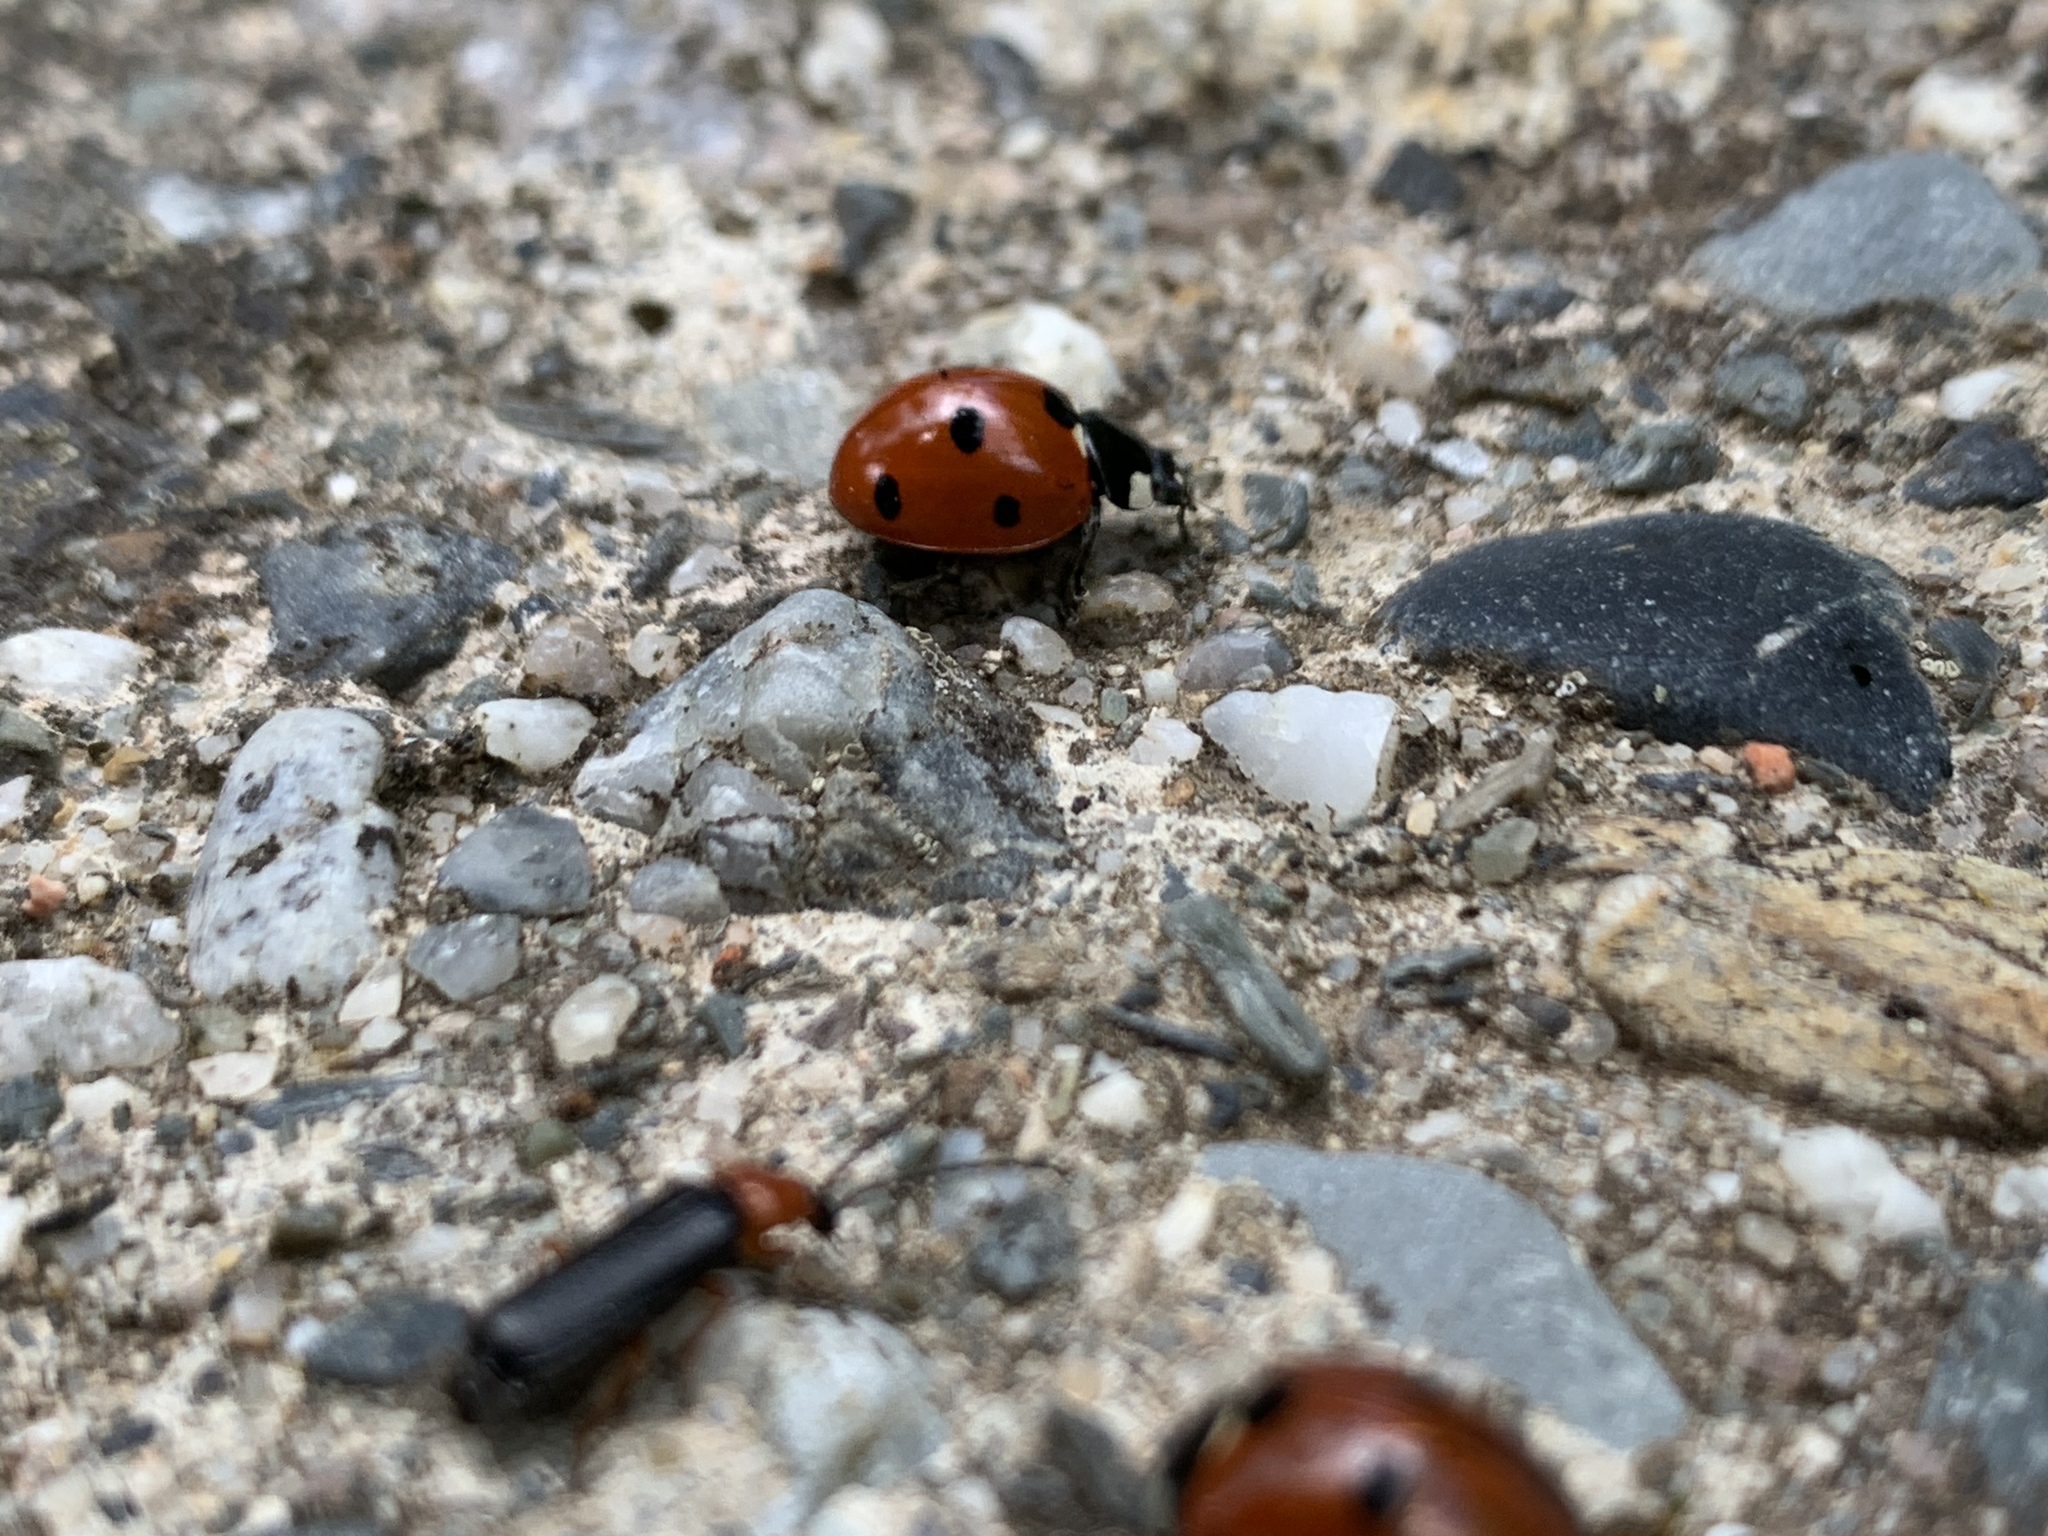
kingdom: Animalia
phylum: Arthropoda
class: Insecta
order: Coleoptera
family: Coccinellidae
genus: Coccinella
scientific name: Coccinella septempunctata
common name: Sevenspotted lady beetle
